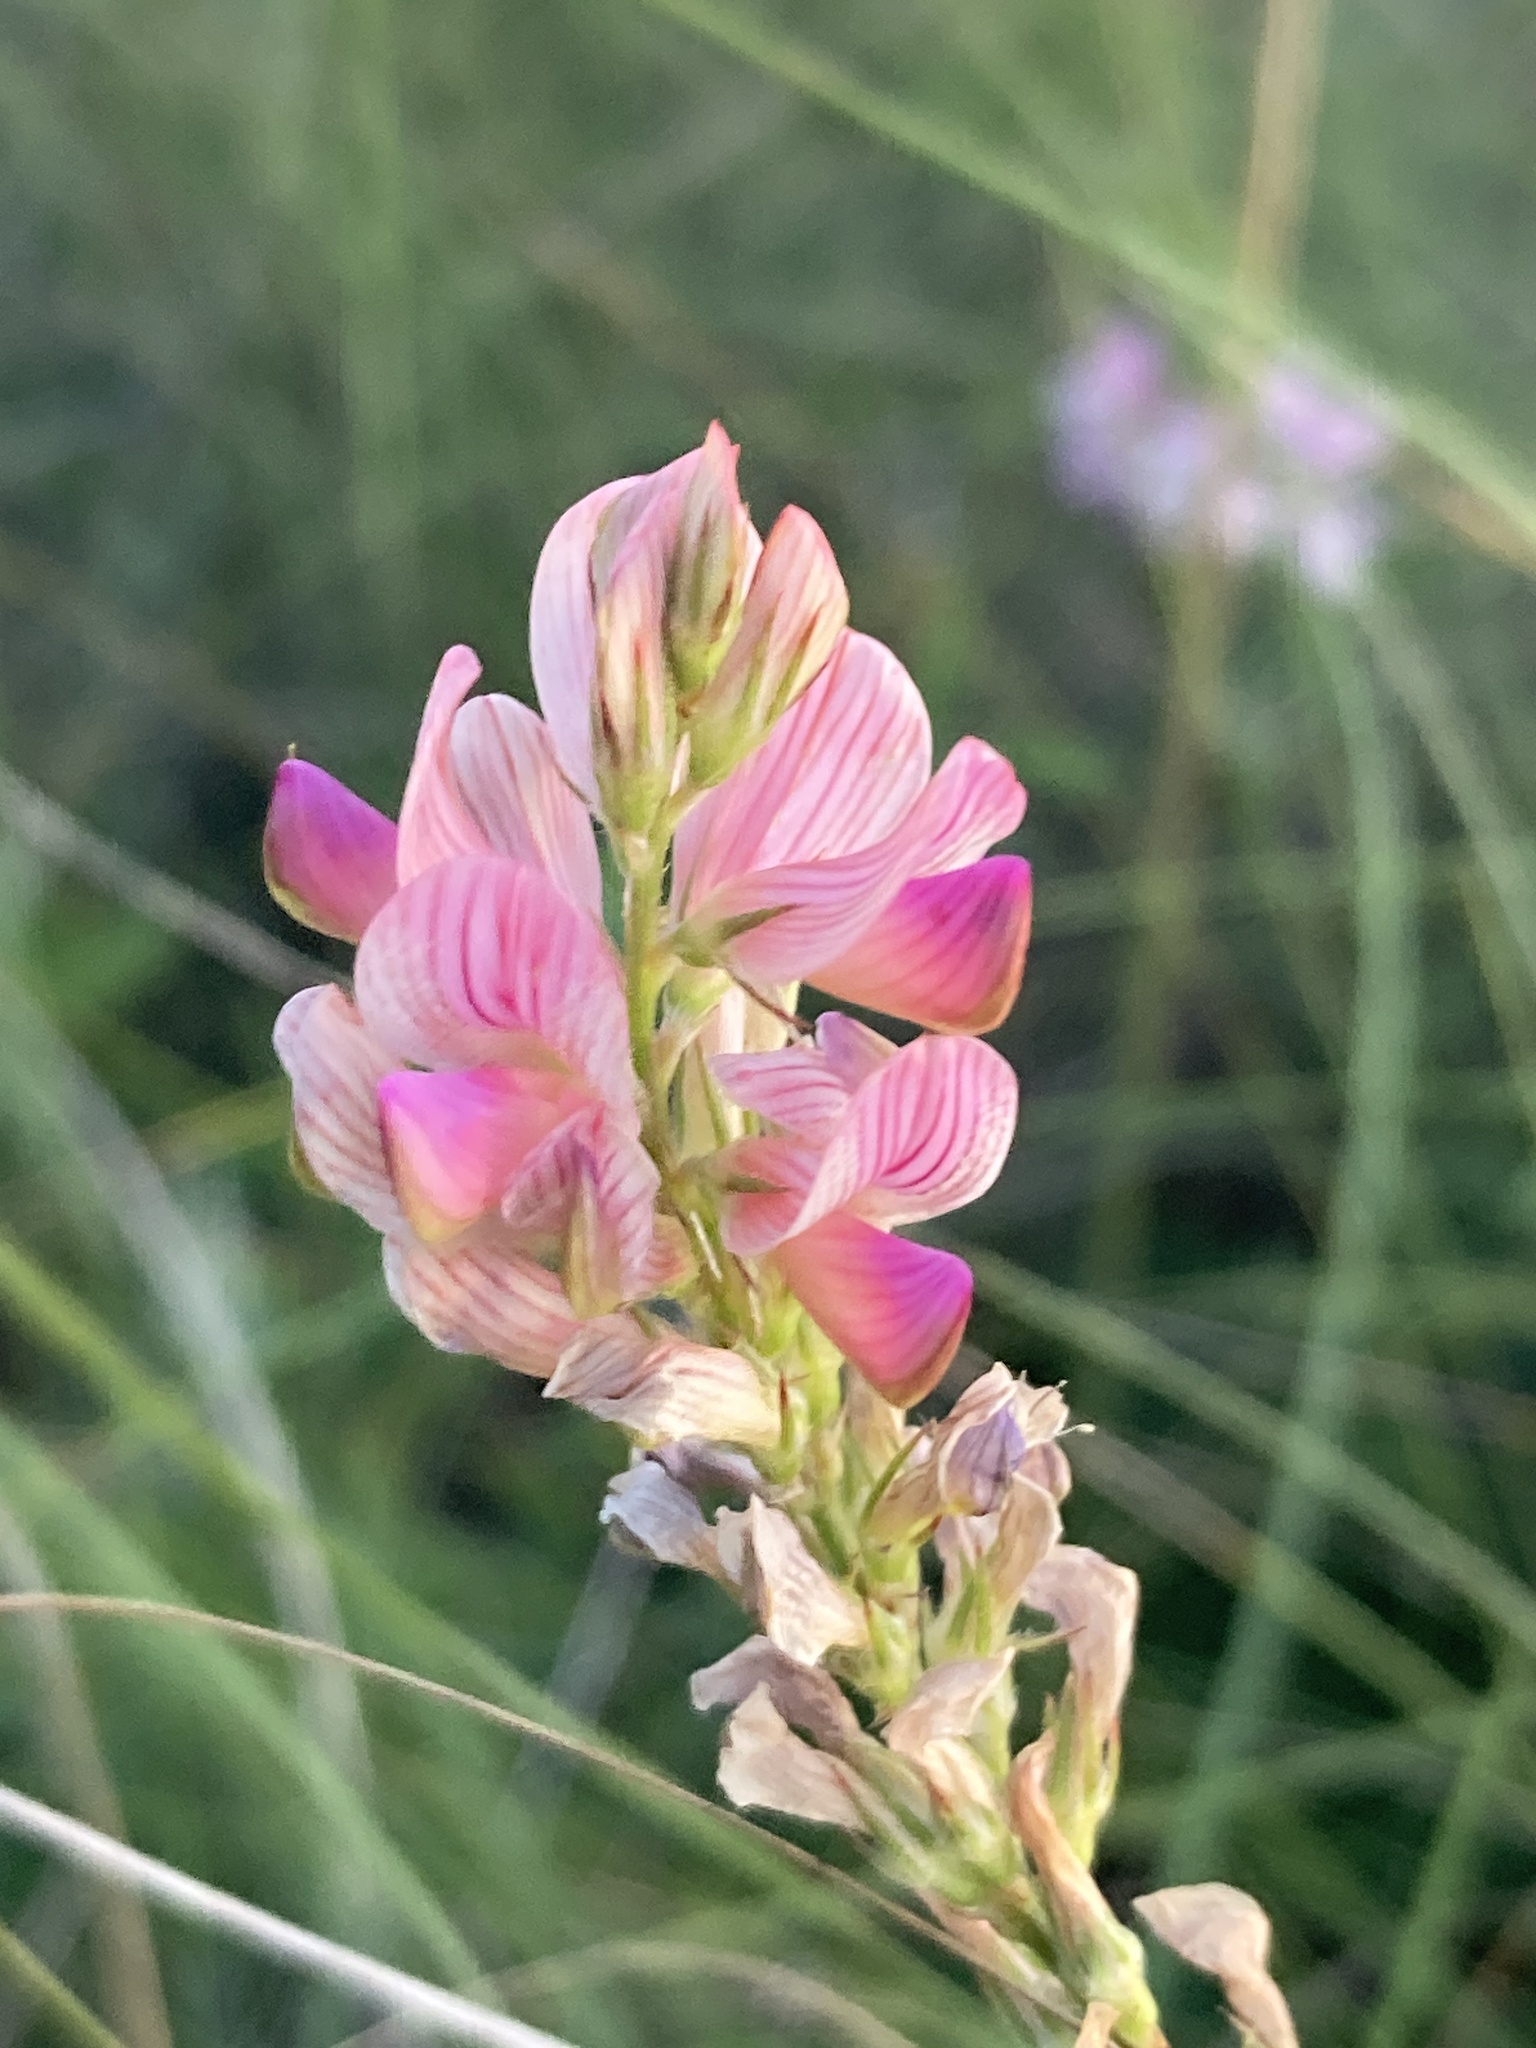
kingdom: Plantae
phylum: Tracheophyta
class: Magnoliopsida
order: Fabales
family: Fabaceae
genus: Onobrychis
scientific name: Onobrychis viciifolia
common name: Sainfoin
